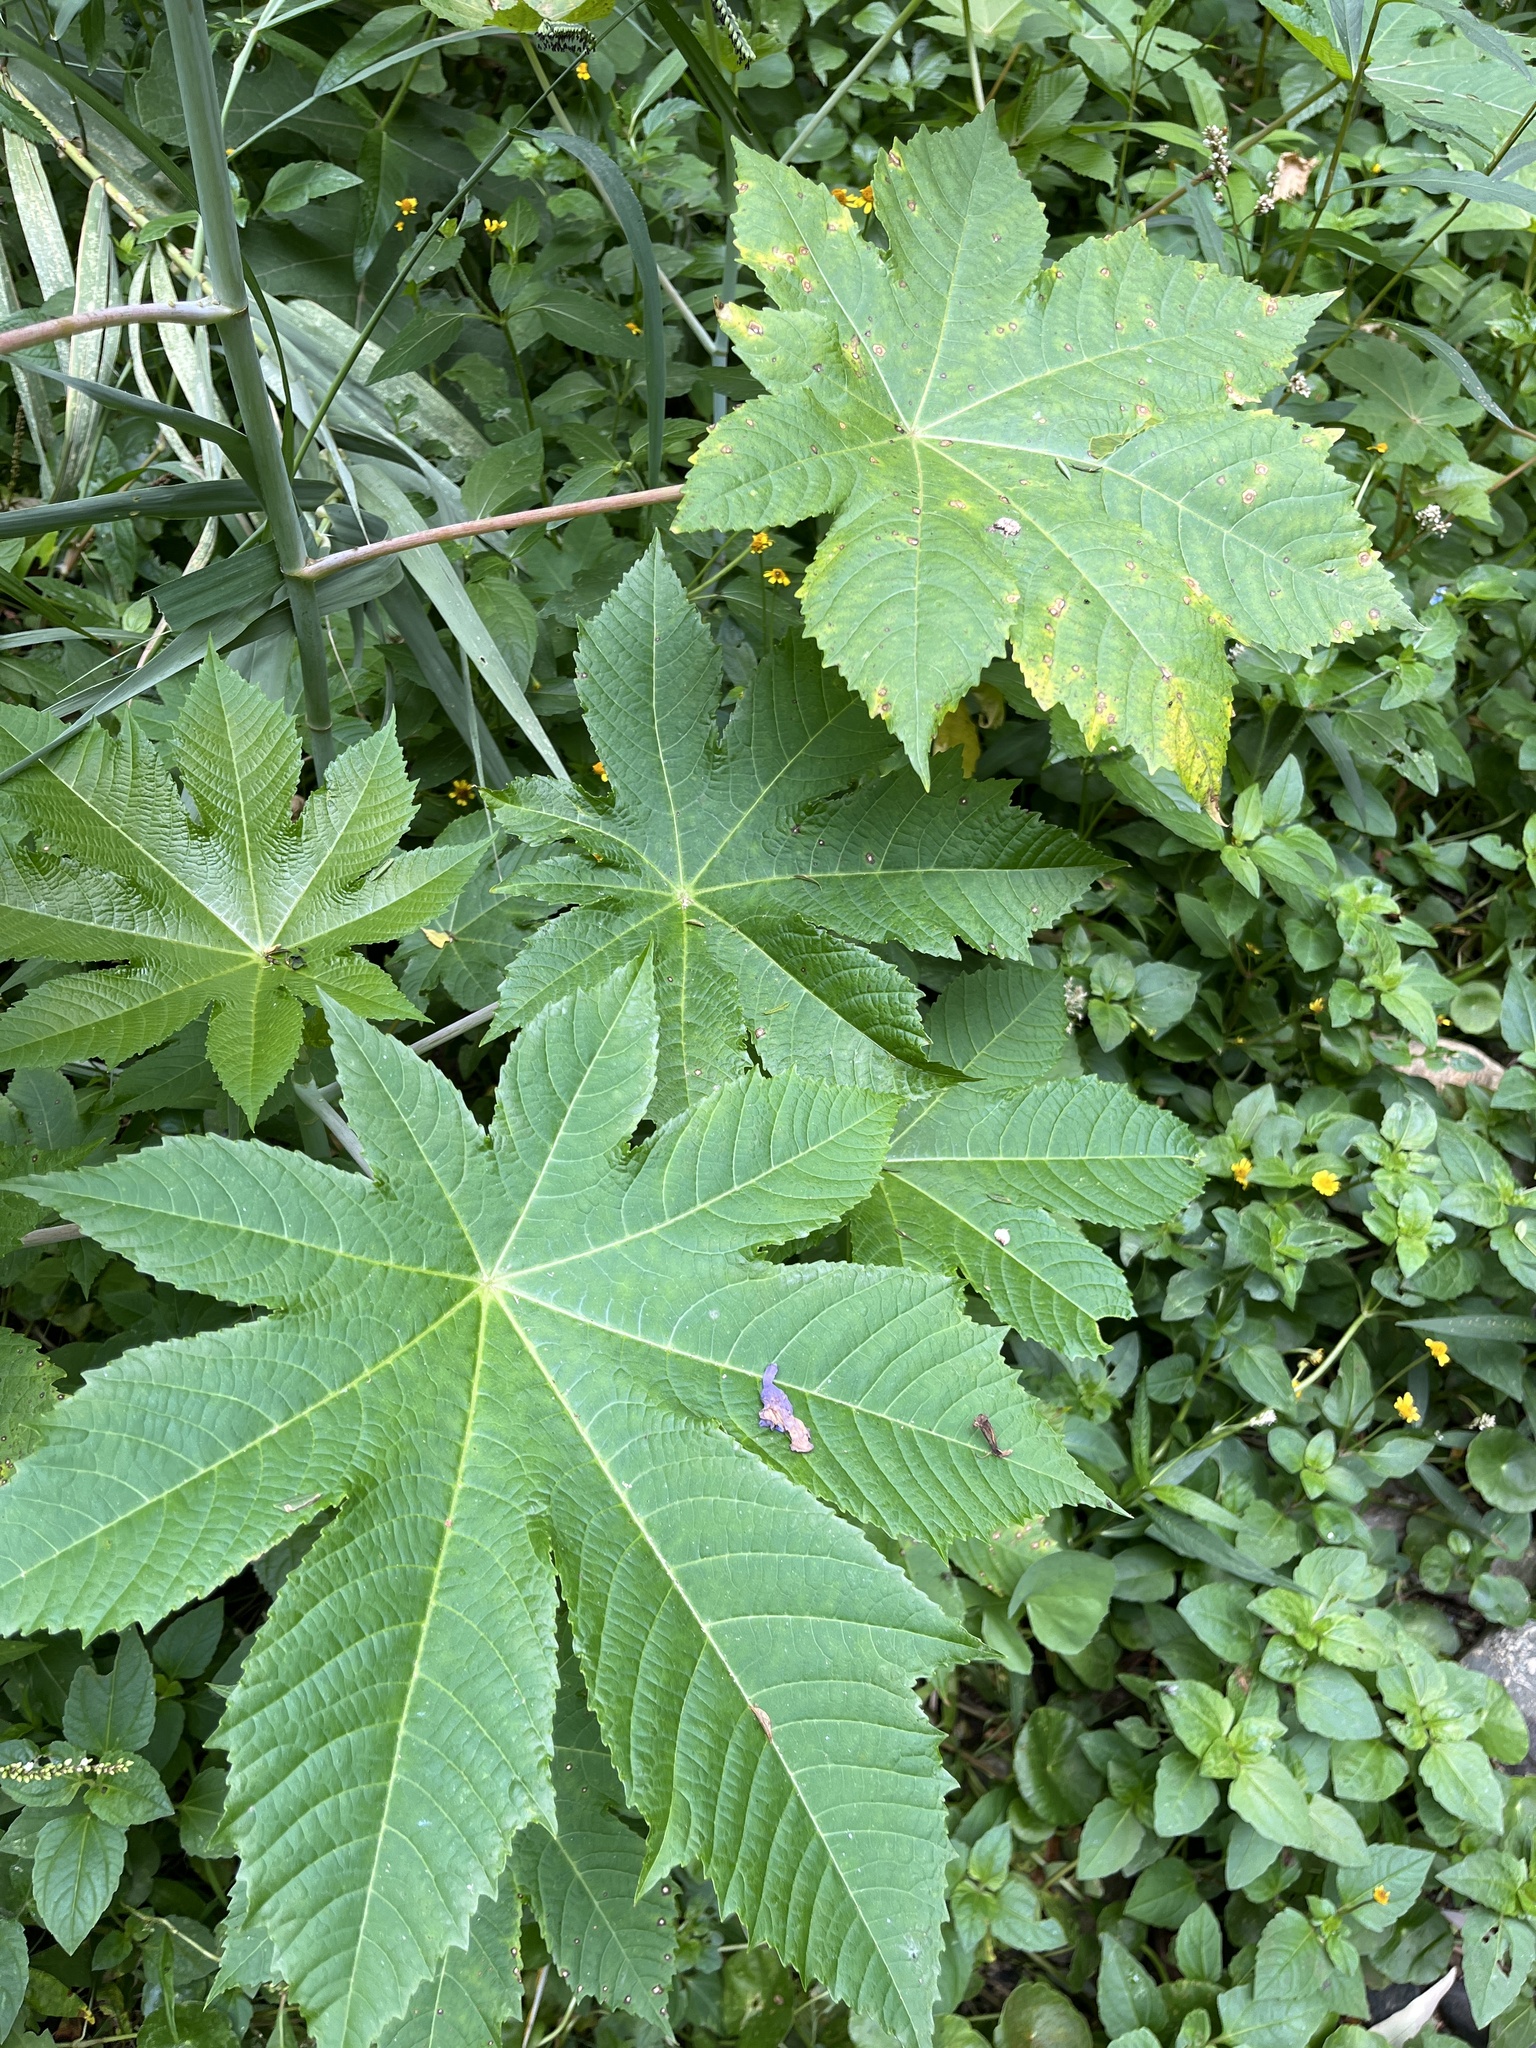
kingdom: Plantae
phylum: Tracheophyta
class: Magnoliopsida
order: Malpighiales
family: Euphorbiaceae
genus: Ricinus
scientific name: Ricinus communis
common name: Castor-oil-plant
